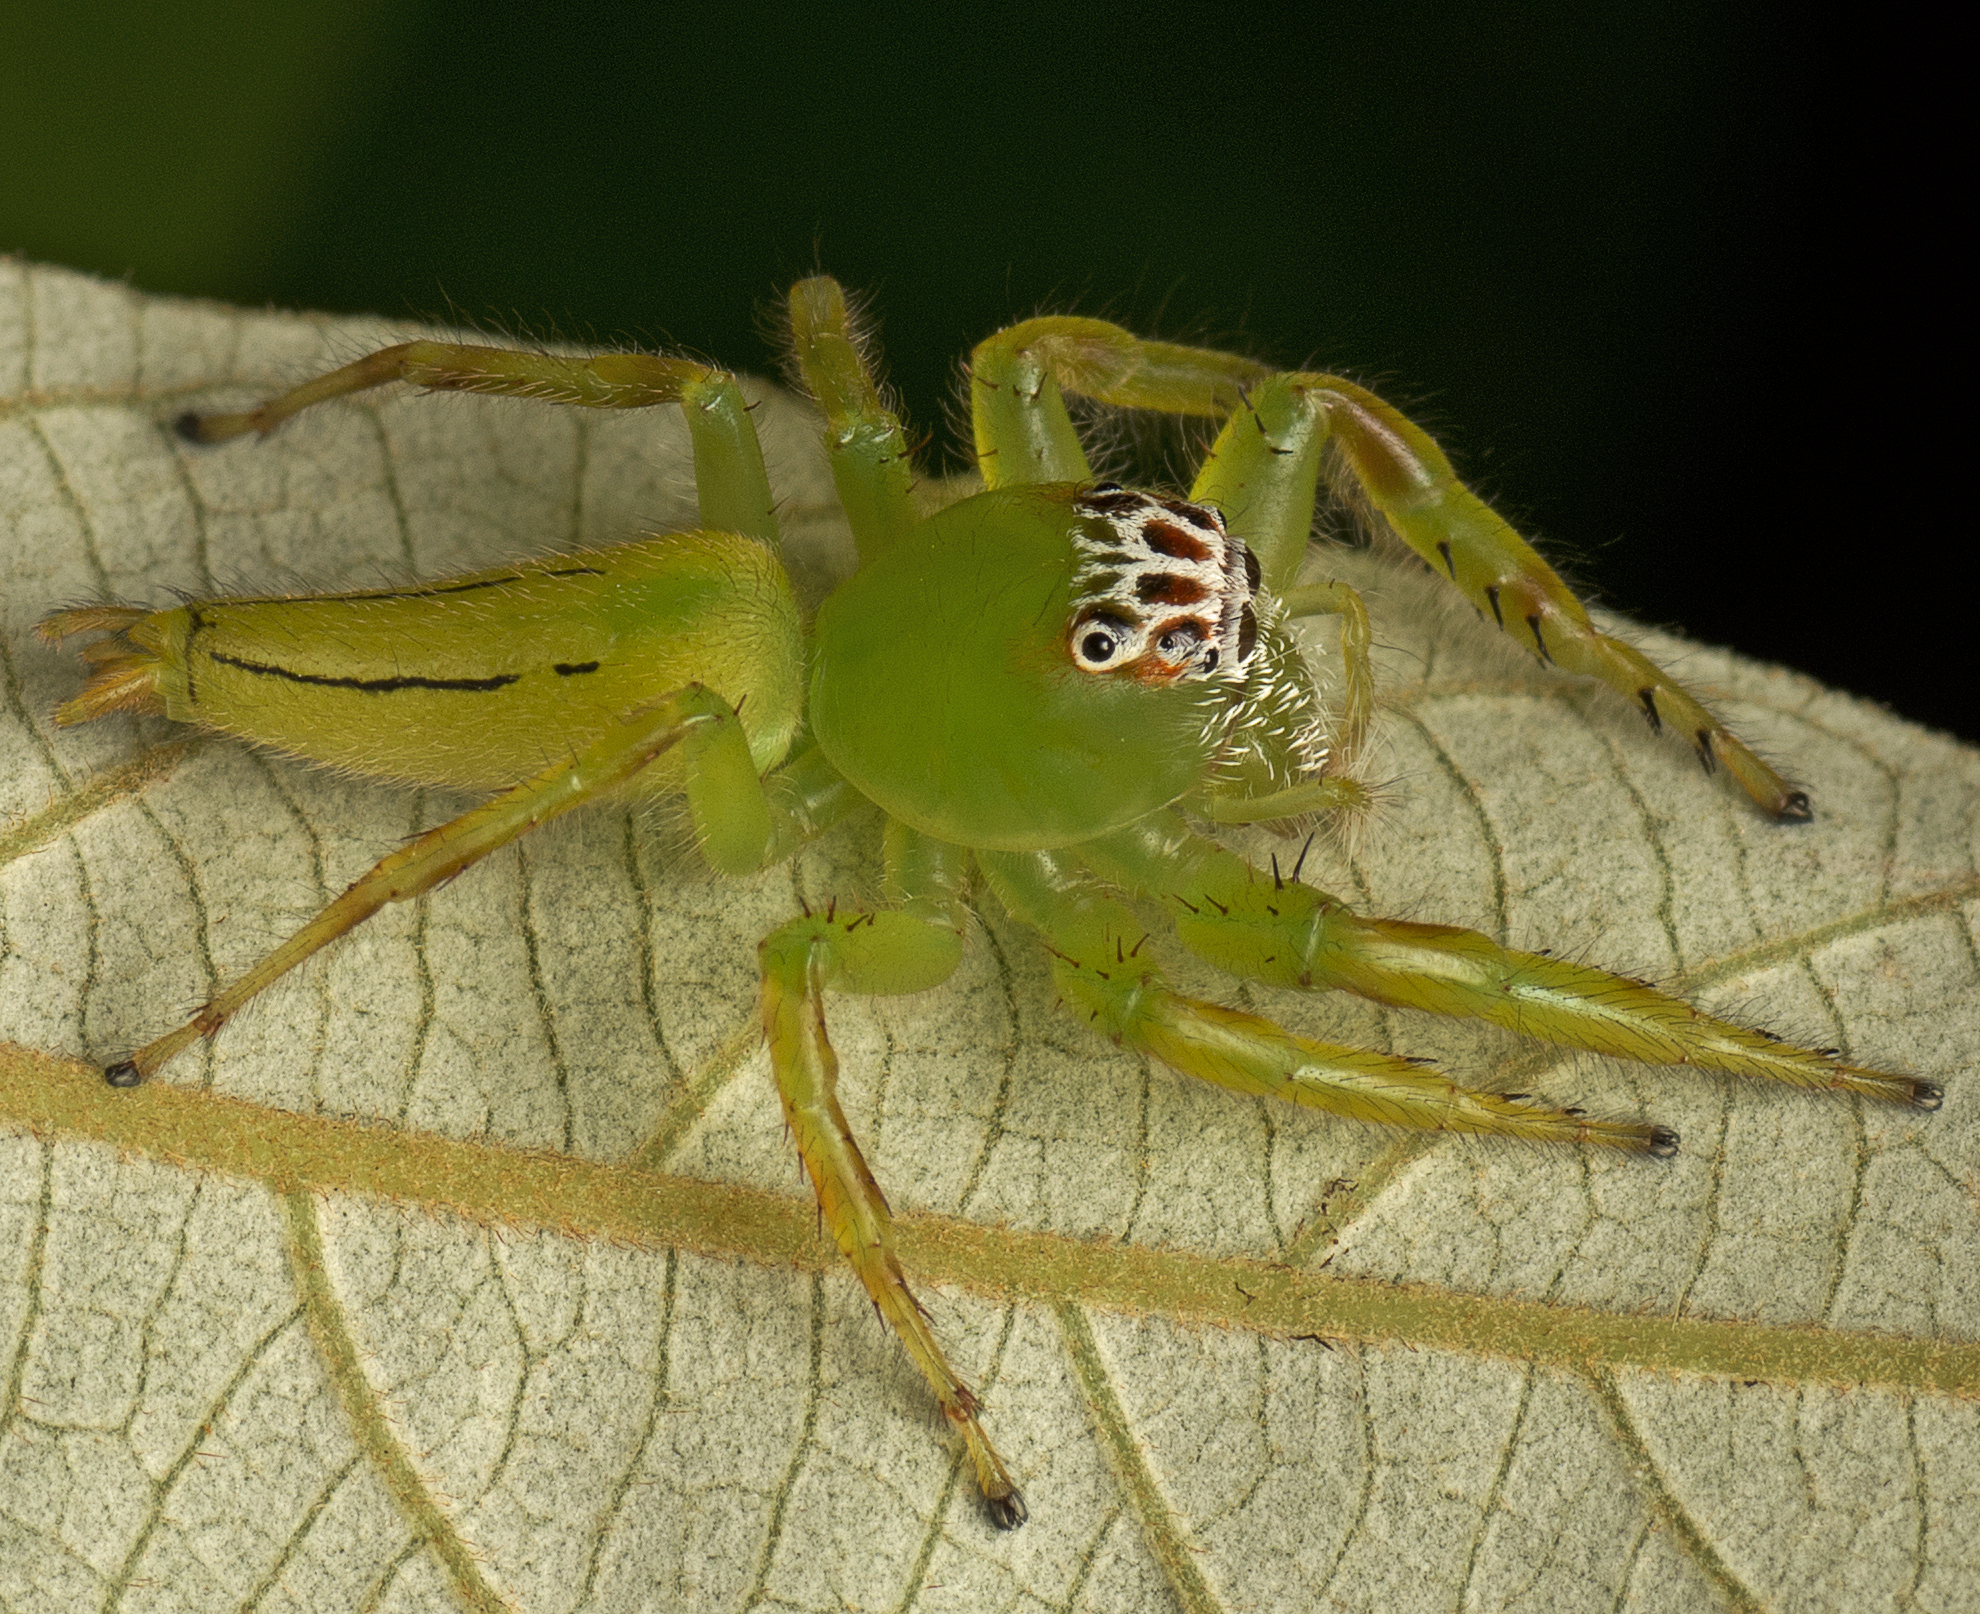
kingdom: Animalia
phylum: Arthropoda
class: Arachnida
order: Araneae
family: Salticidae
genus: Mopsus
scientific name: Mopsus mormon
